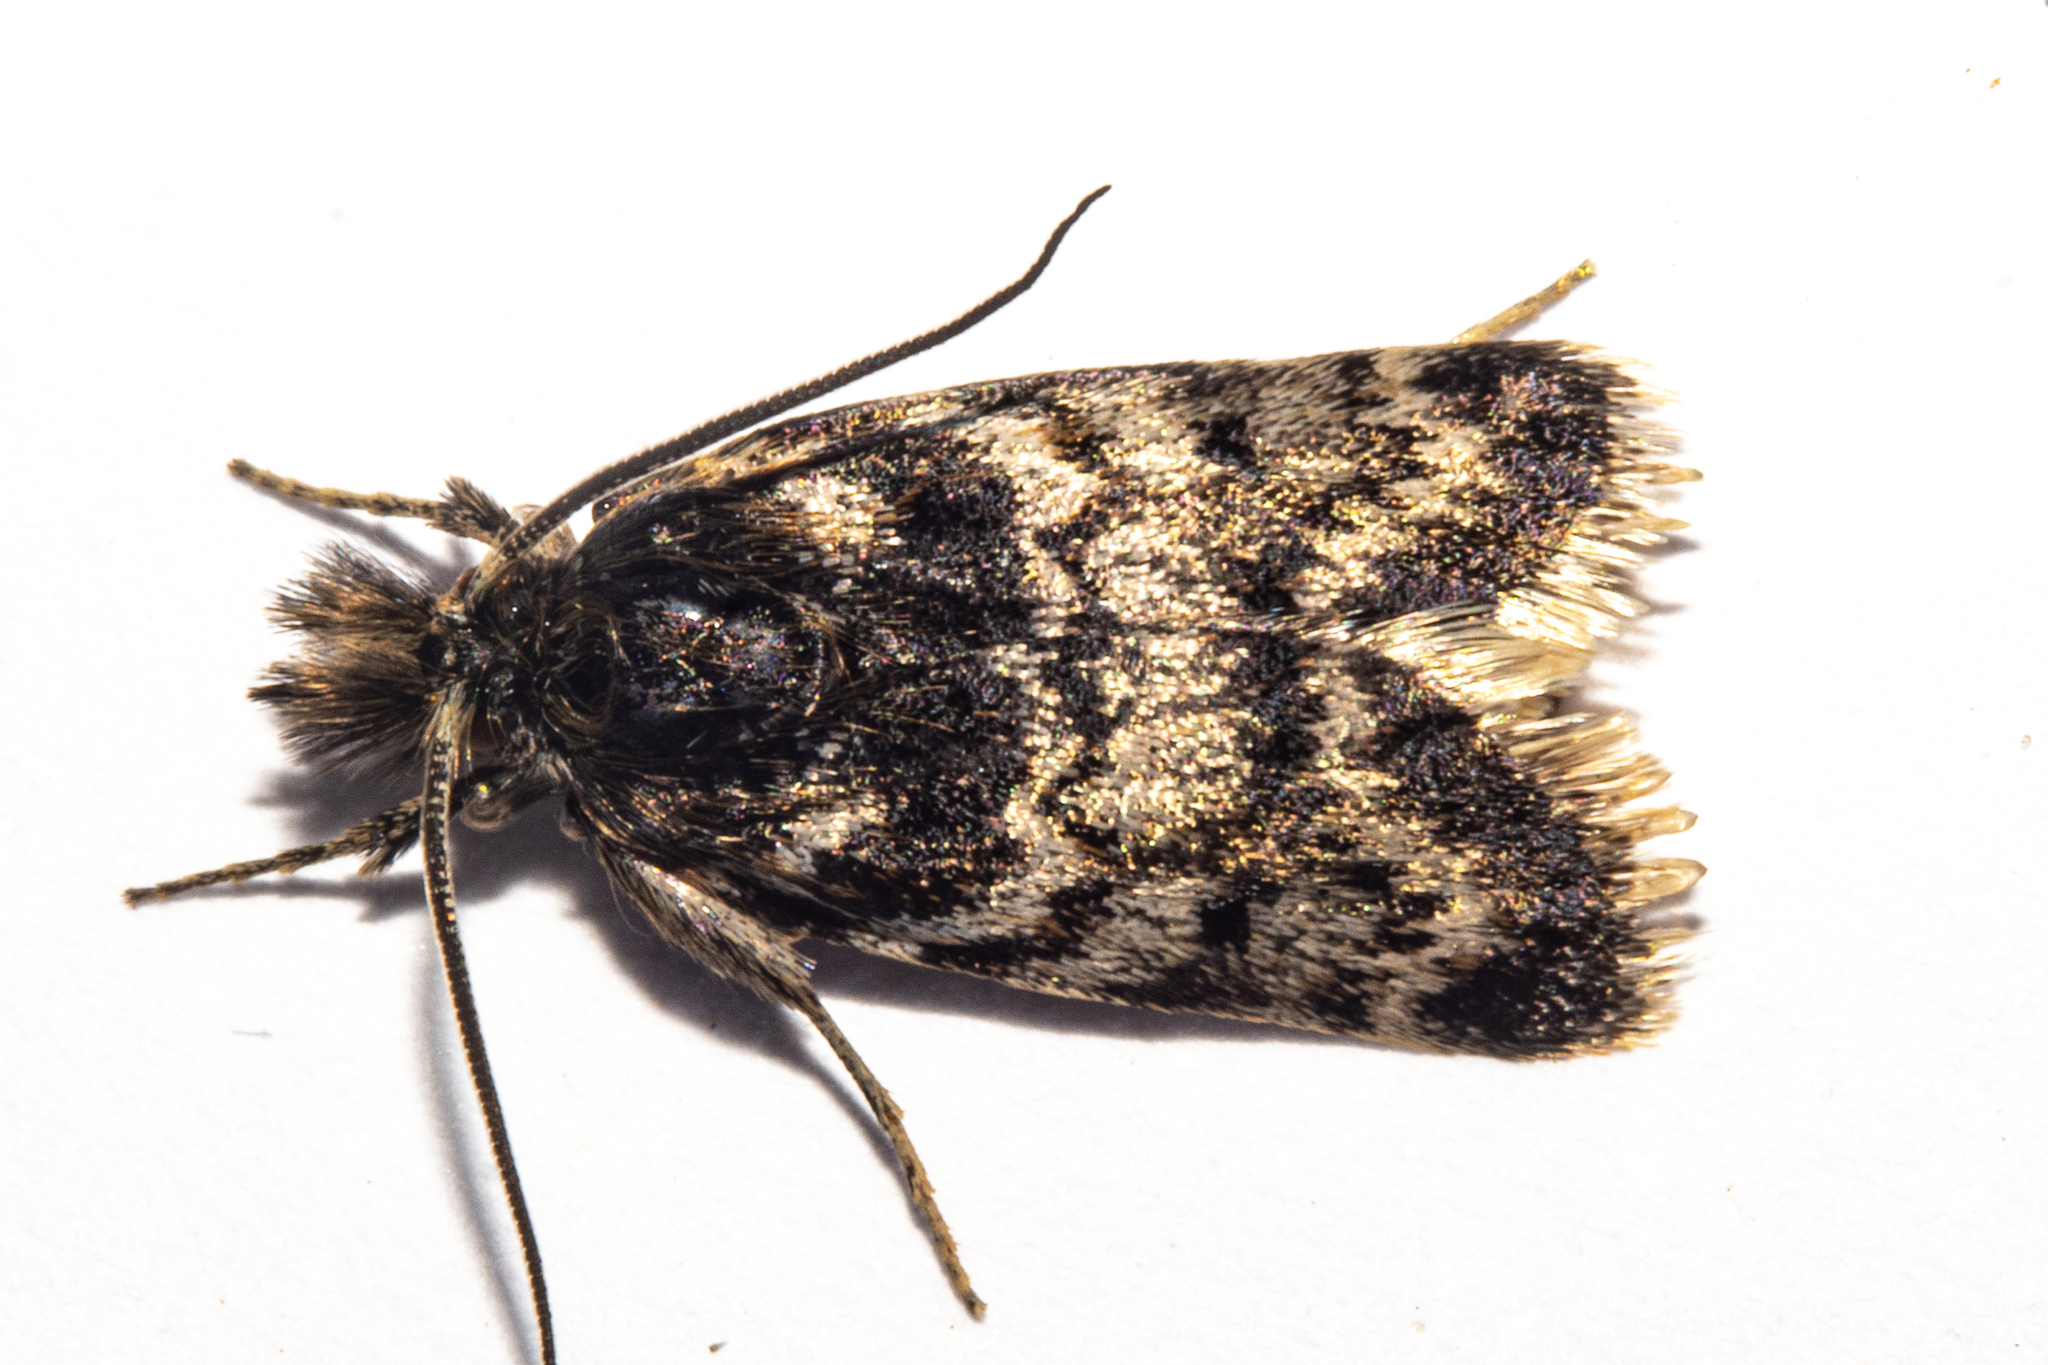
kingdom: Animalia
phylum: Arthropoda
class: Insecta
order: Lepidoptera
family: Crambidae
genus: Tauroscopa
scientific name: Tauroscopa gorgopis
